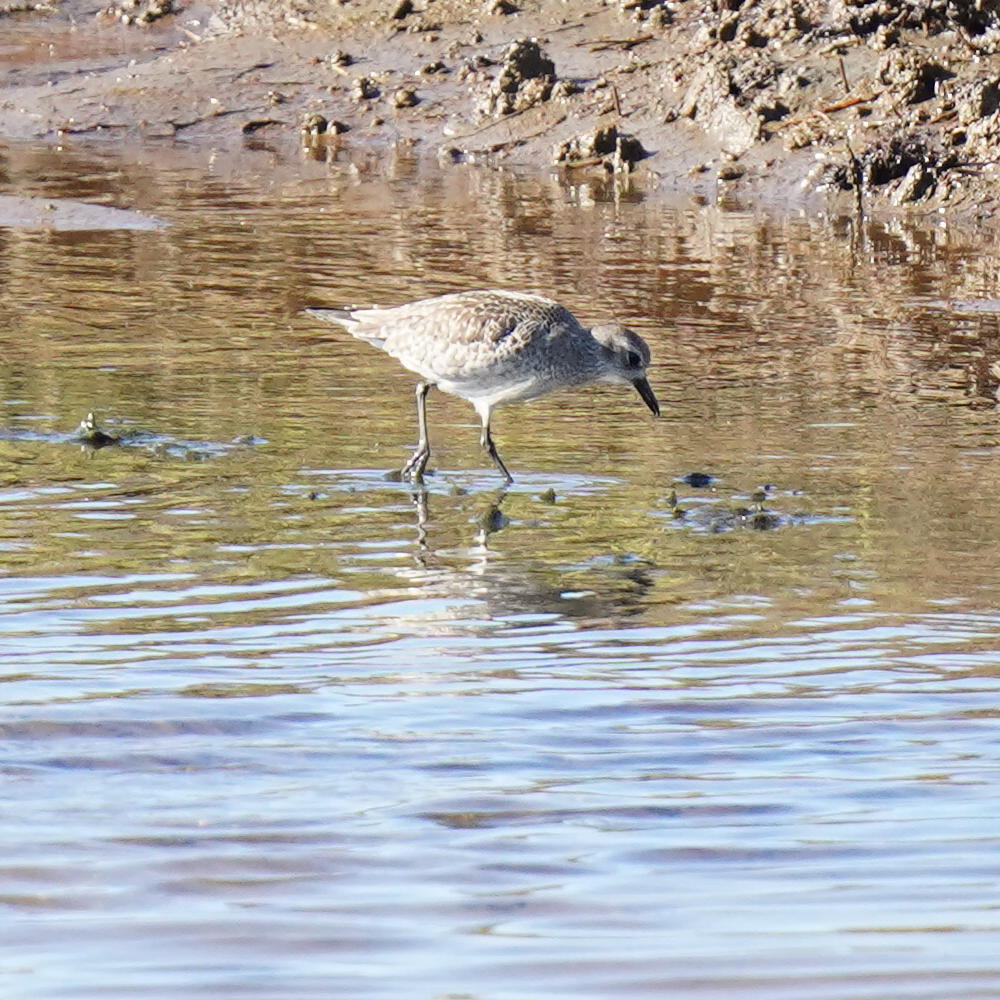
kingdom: Animalia
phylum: Chordata
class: Aves
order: Charadriiformes
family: Charadriidae
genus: Pluvialis
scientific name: Pluvialis squatarola
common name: Grey plover
